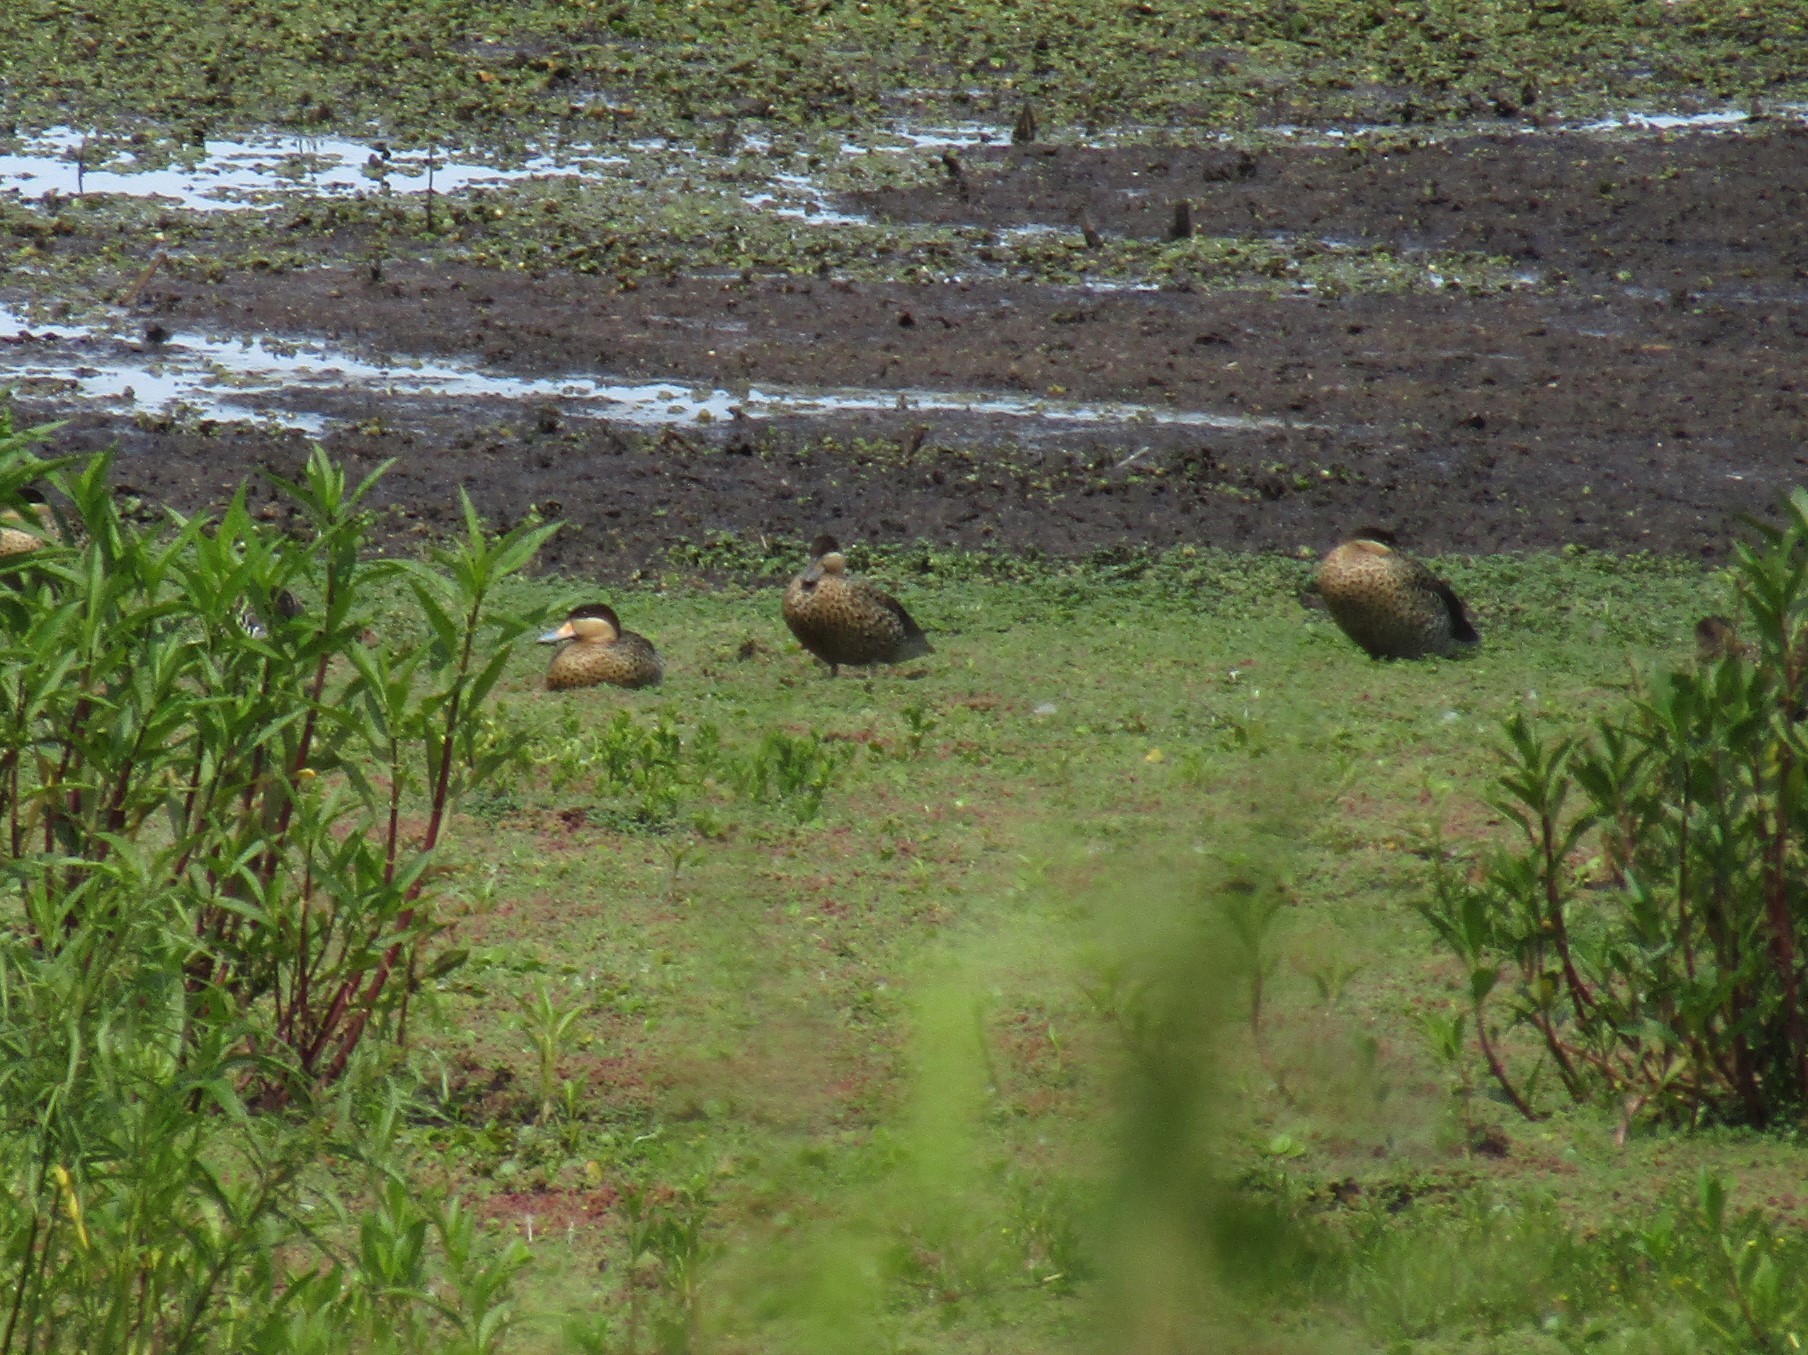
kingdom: Animalia
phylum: Chordata
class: Aves
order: Anseriformes
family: Anatidae
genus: Spatula
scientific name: Spatula versicolor
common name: Silver teal
